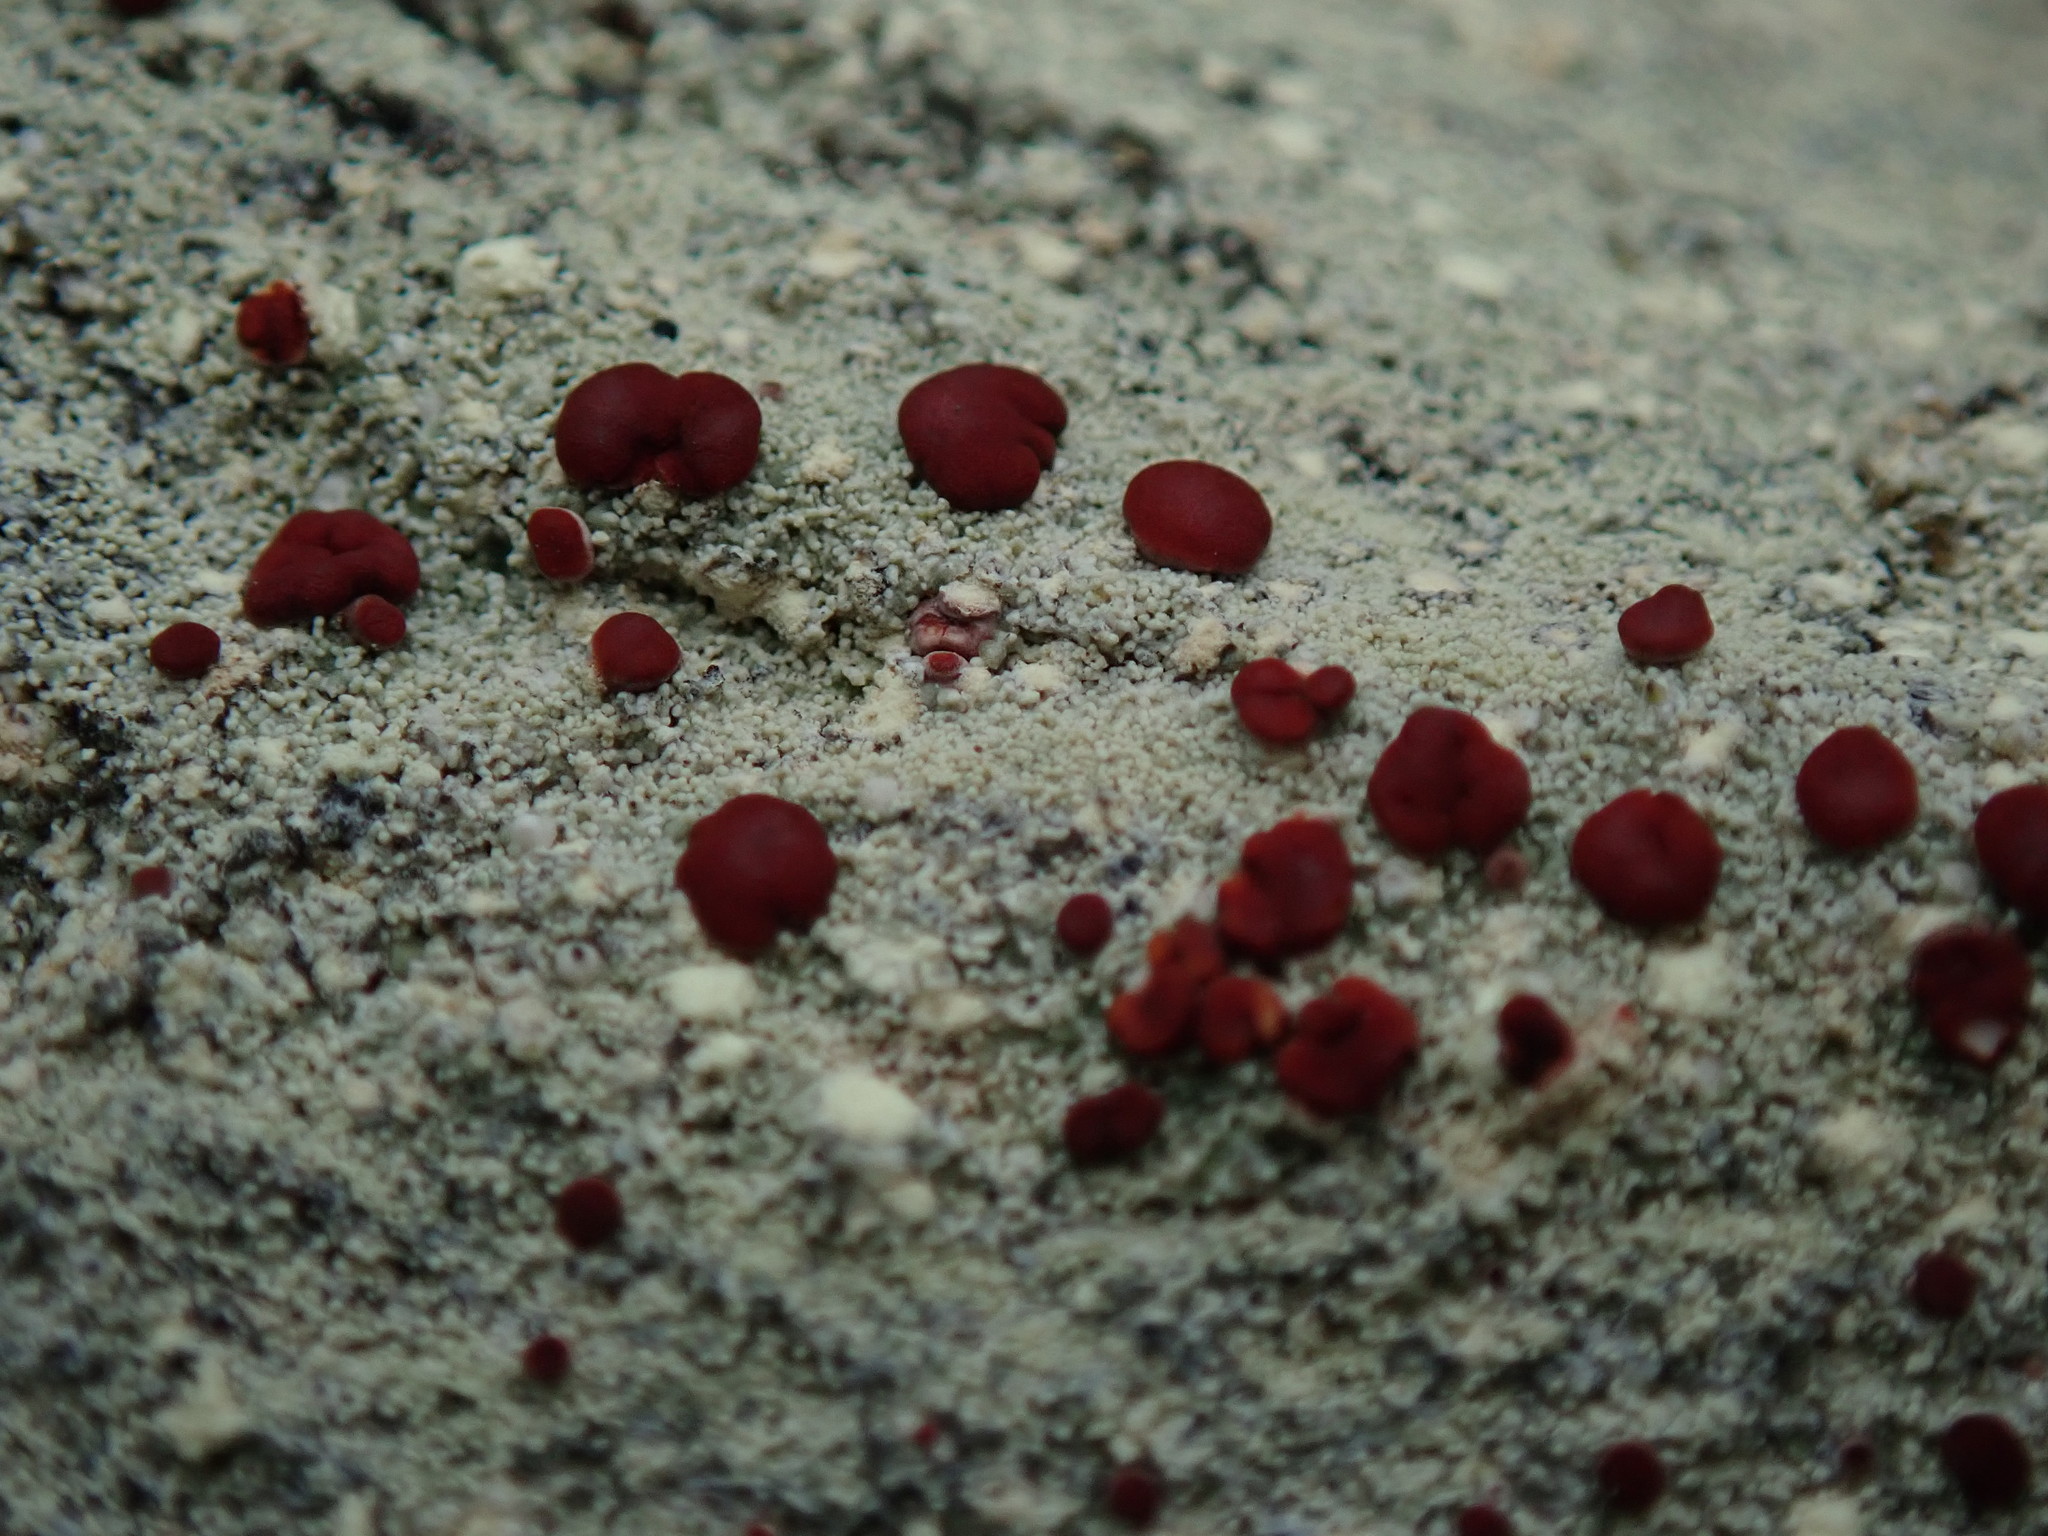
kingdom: Fungi
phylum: Ascomycota
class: Lecanoromycetes
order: Lecanorales
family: Ramalinaceae
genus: Bilimbia
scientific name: Bilimbia rubricosa
